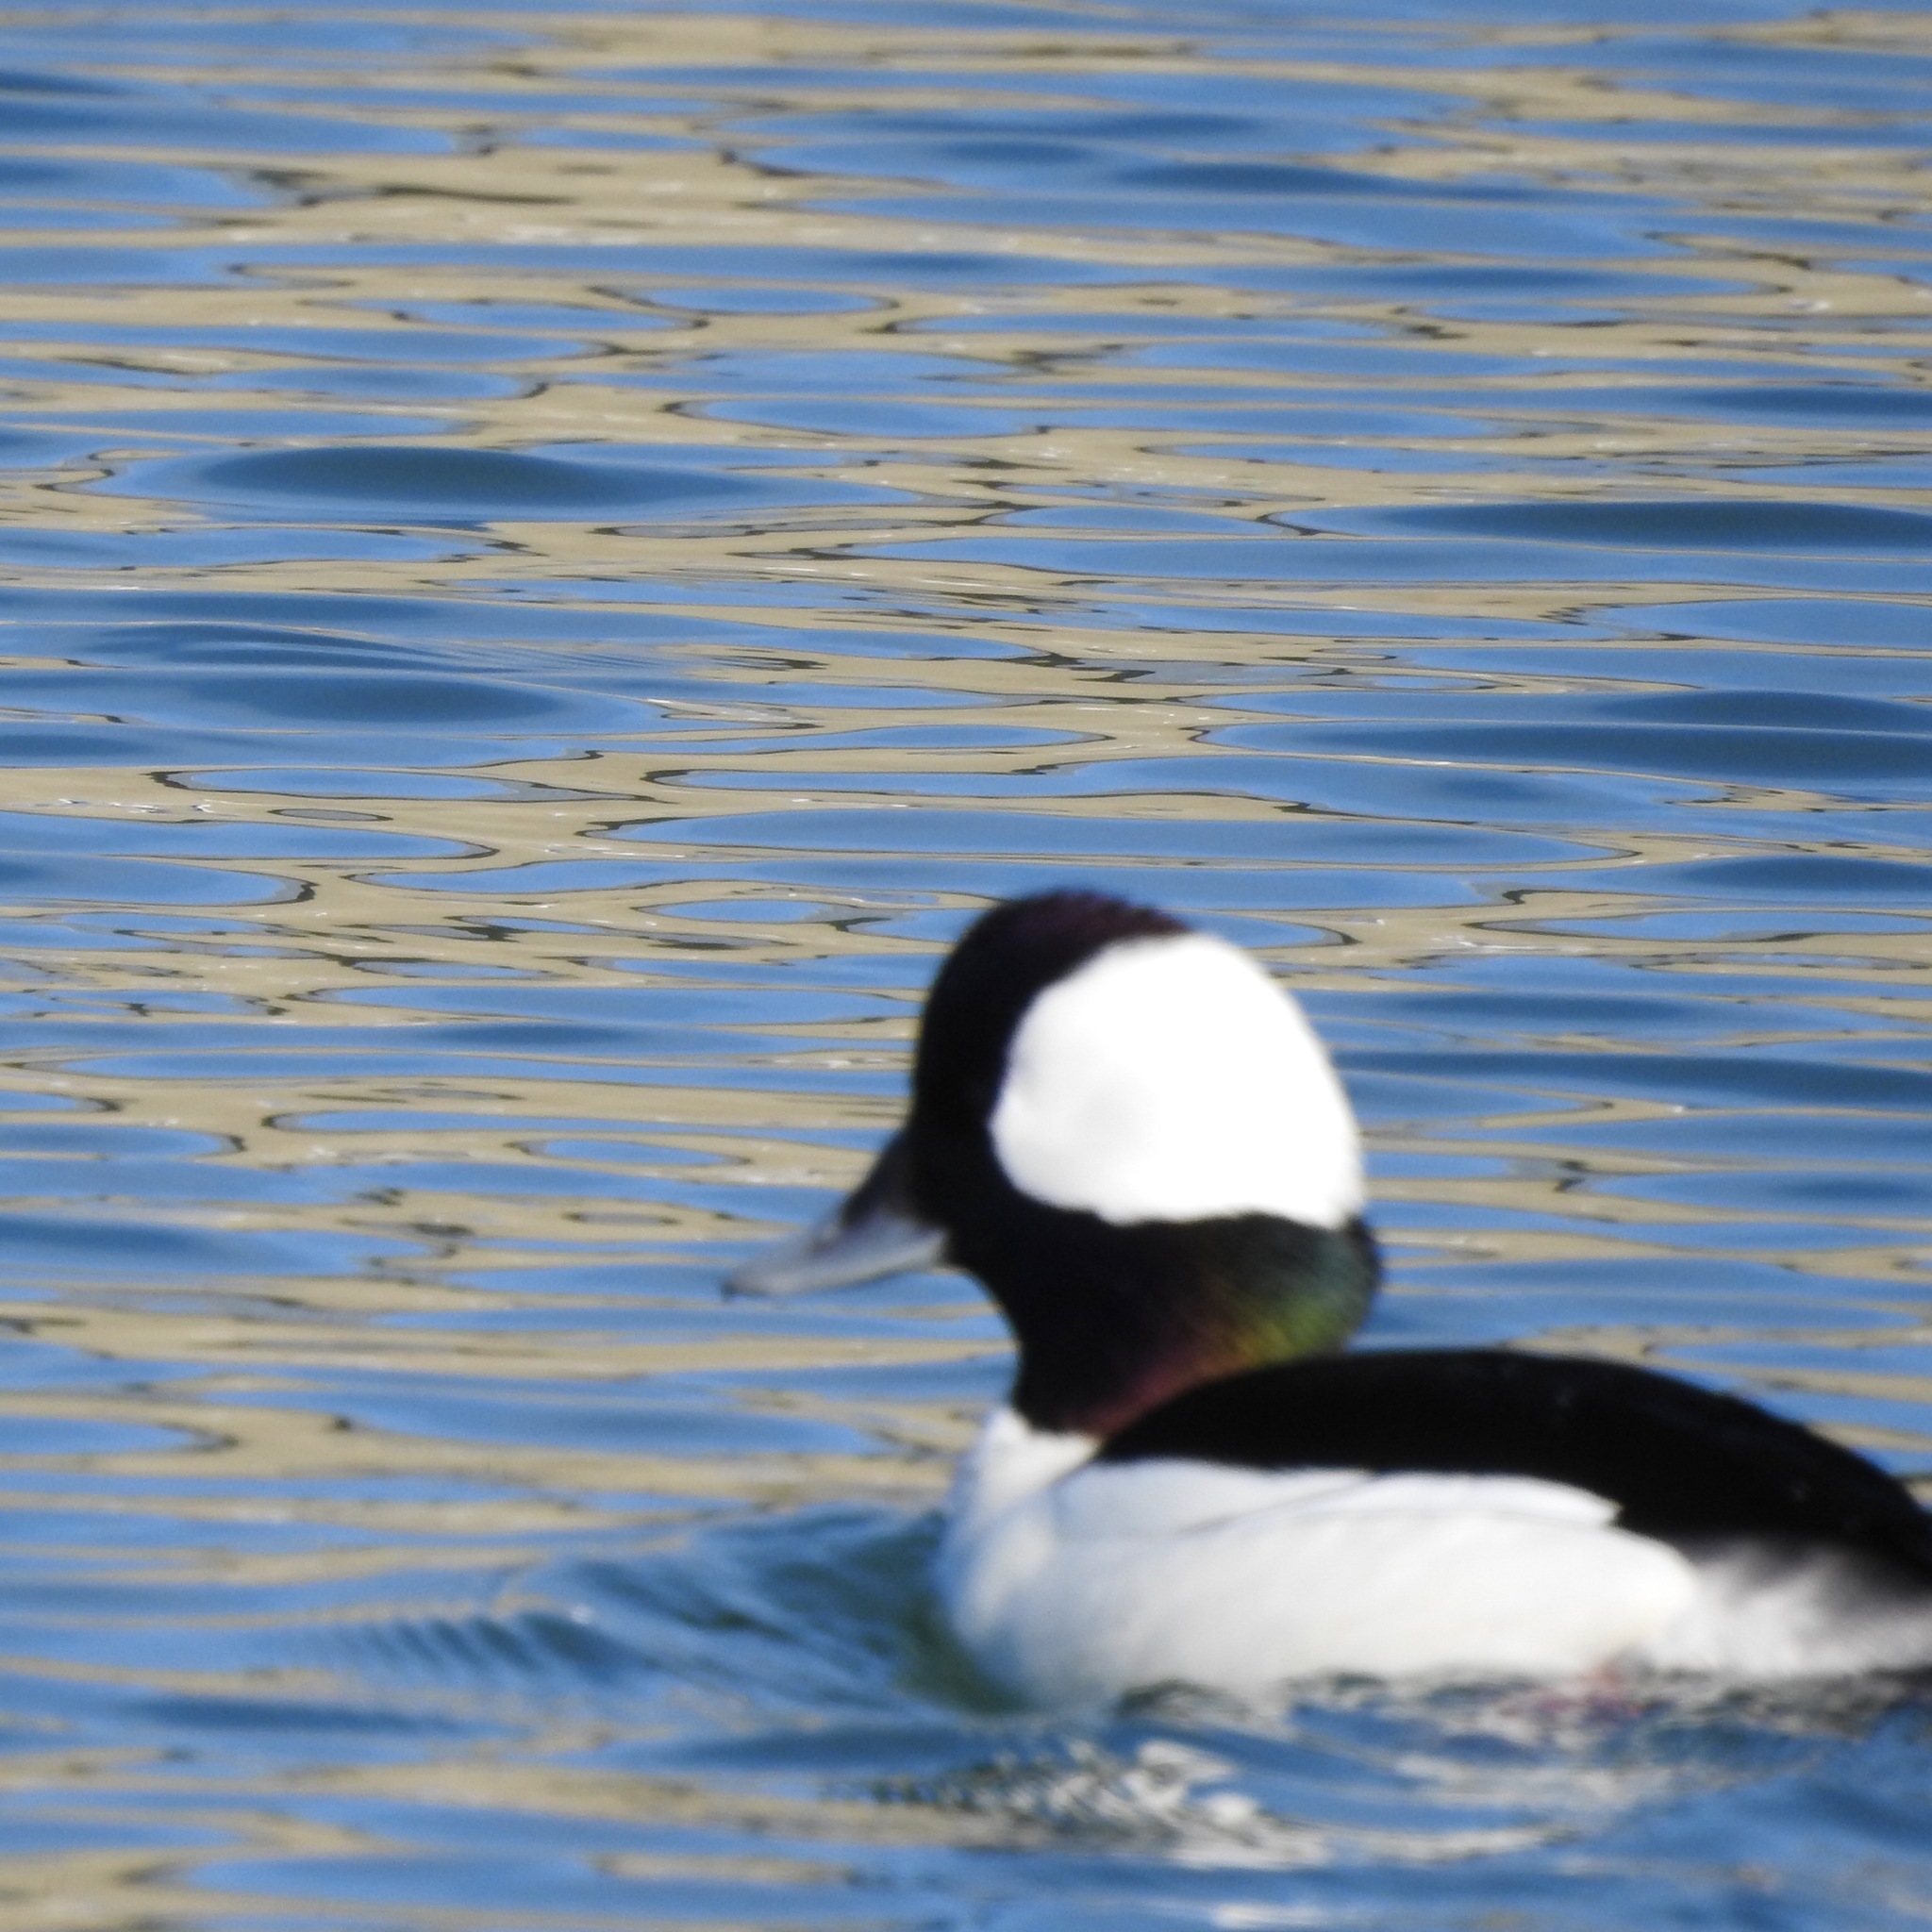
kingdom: Animalia
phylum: Chordata
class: Aves
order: Anseriformes
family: Anatidae
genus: Bucephala
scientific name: Bucephala albeola
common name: Bufflehead
